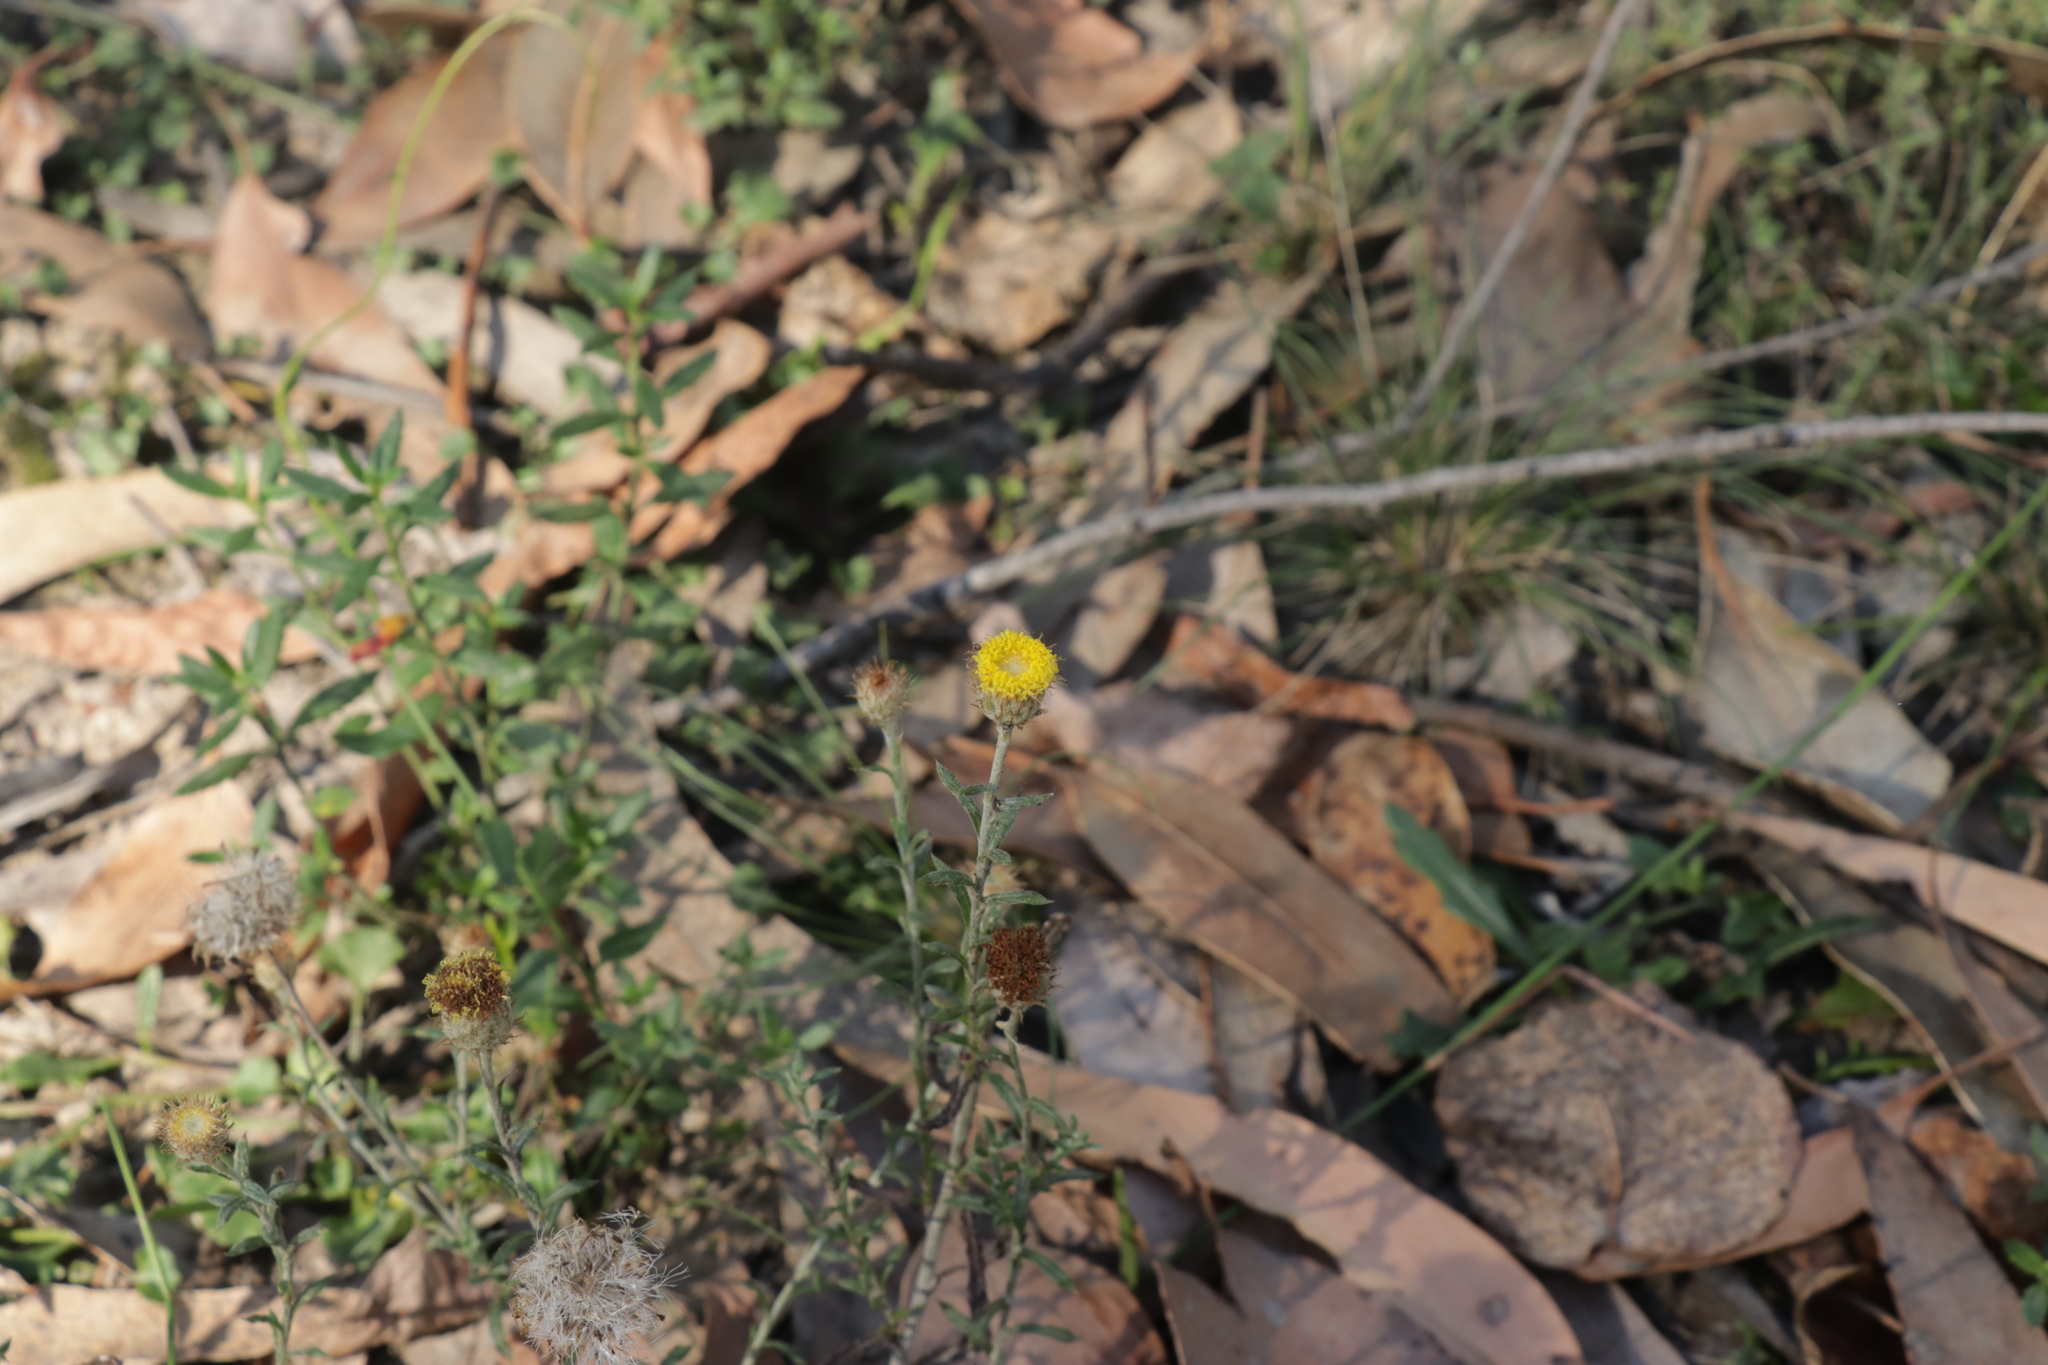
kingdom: Plantae
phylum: Tracheophyta
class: Magnoliopsida
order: Asterales
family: Asteraceae
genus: Leptorhynchos
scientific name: Leptorhynchos squamatus
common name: Scaly-buttons
